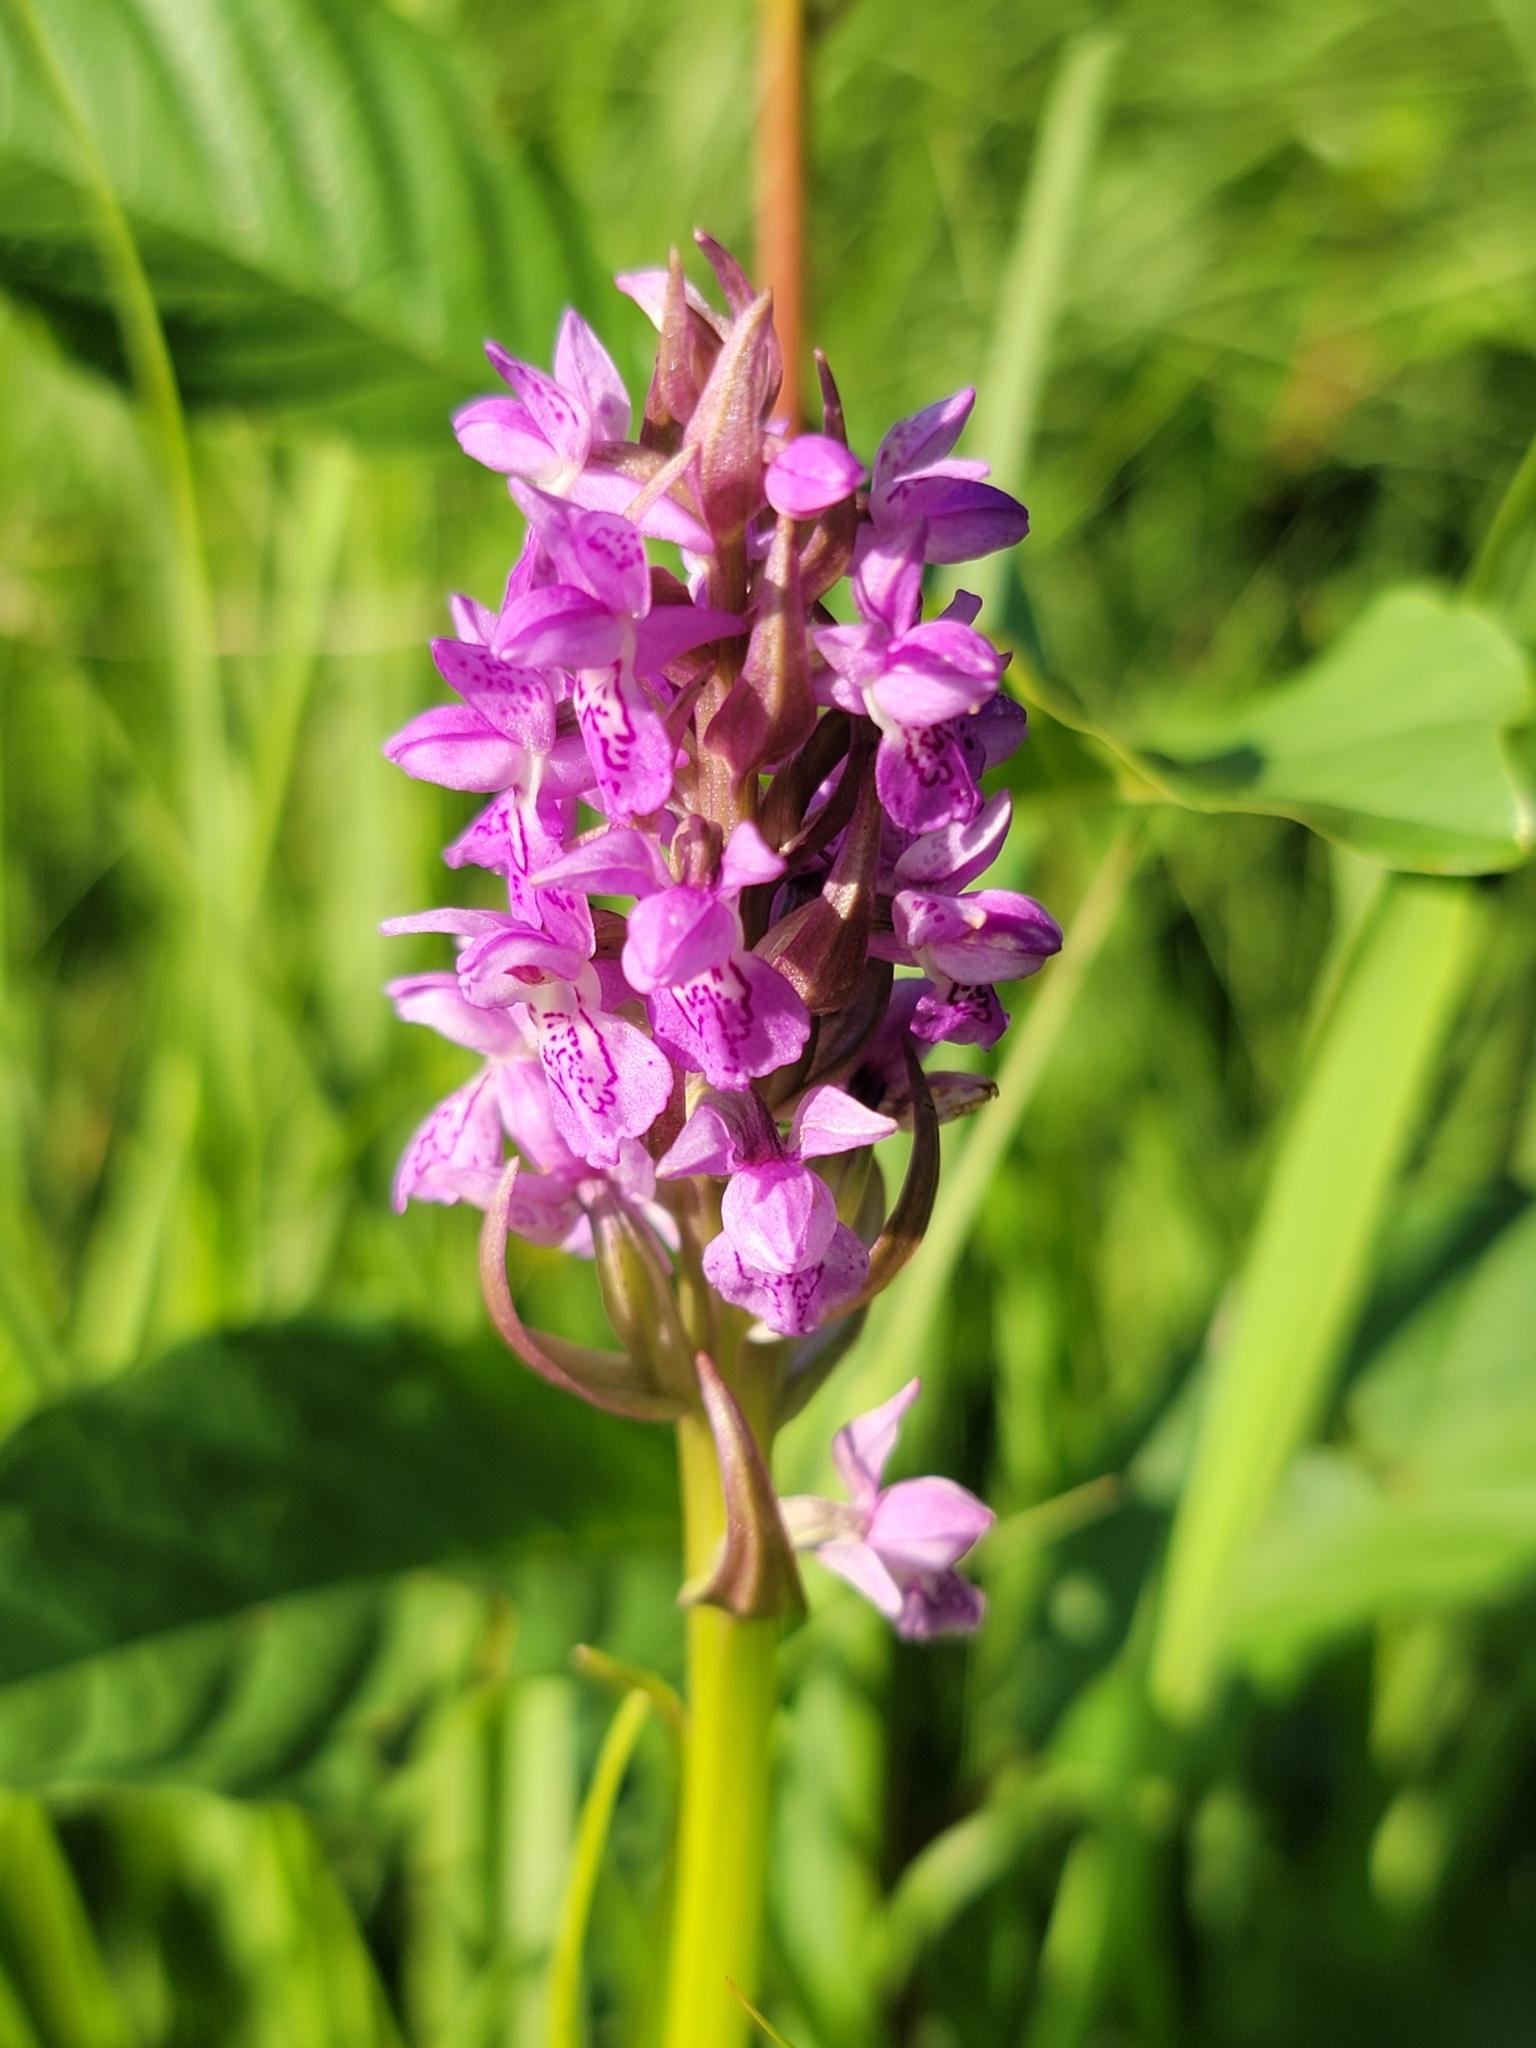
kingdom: Plantae
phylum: Tracheophyta
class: Liliopsida
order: Asparagales
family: Orchidaceae
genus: Dactylorhiza
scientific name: Dactylorhiza incarnata
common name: Early marsh-orchid
